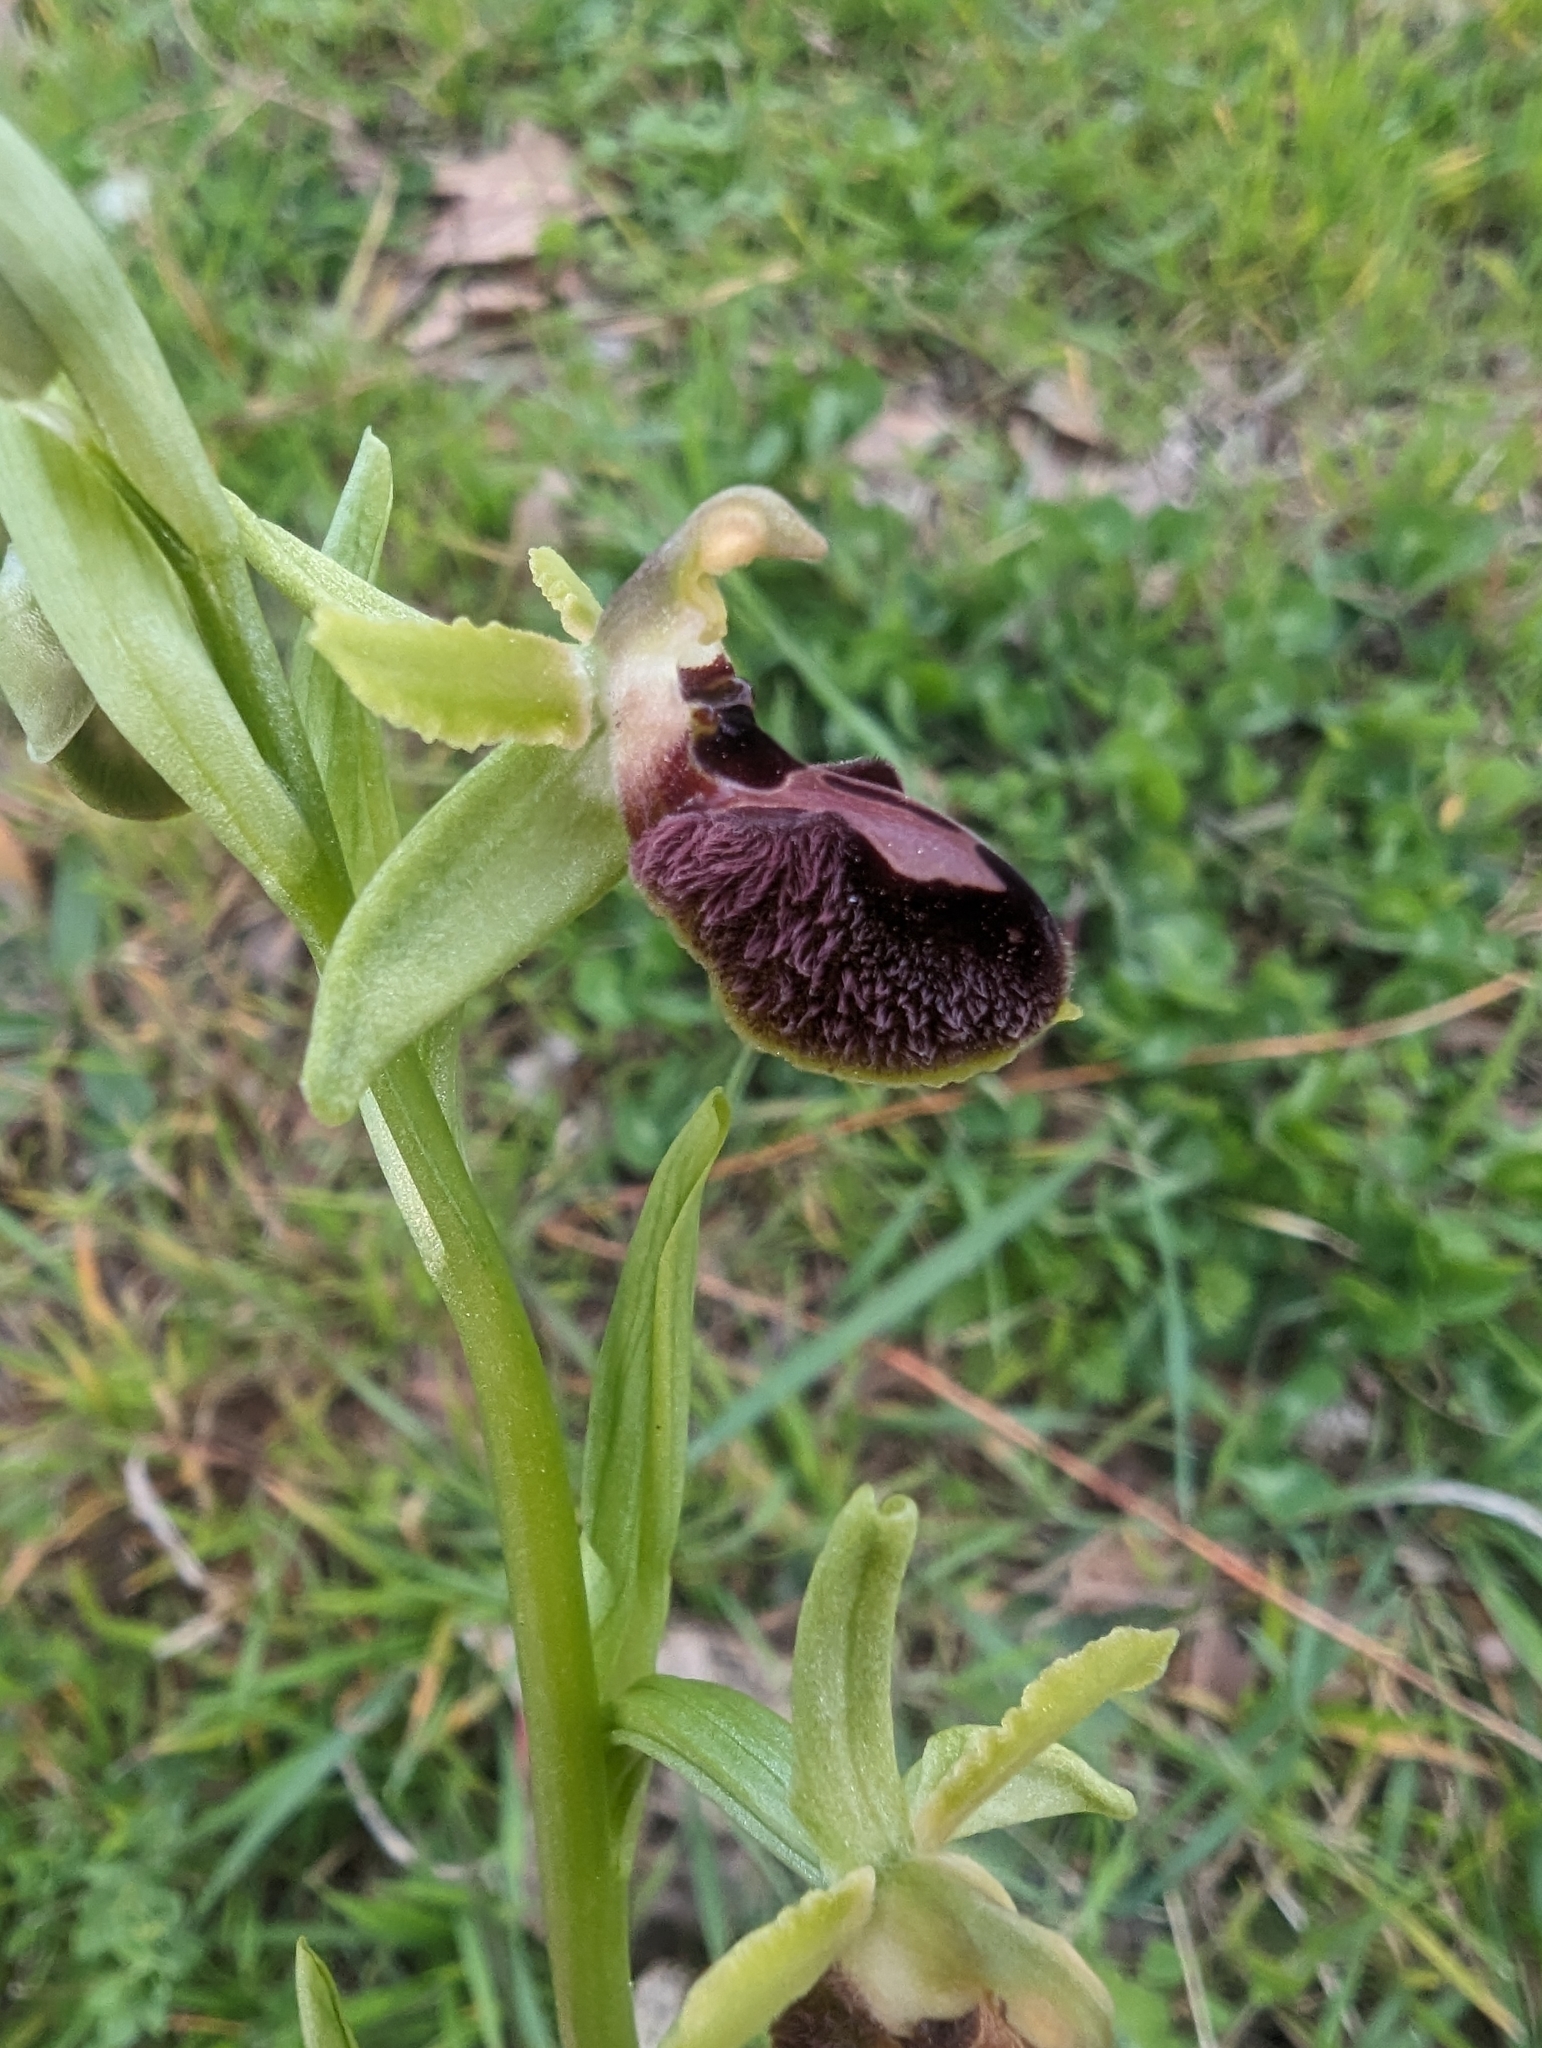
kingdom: Plantae
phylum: Tracheophyta
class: Liliopsida
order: Asparagales
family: Orchidaceae
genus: Ophrys
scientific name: Ophrys arachnitiformis
